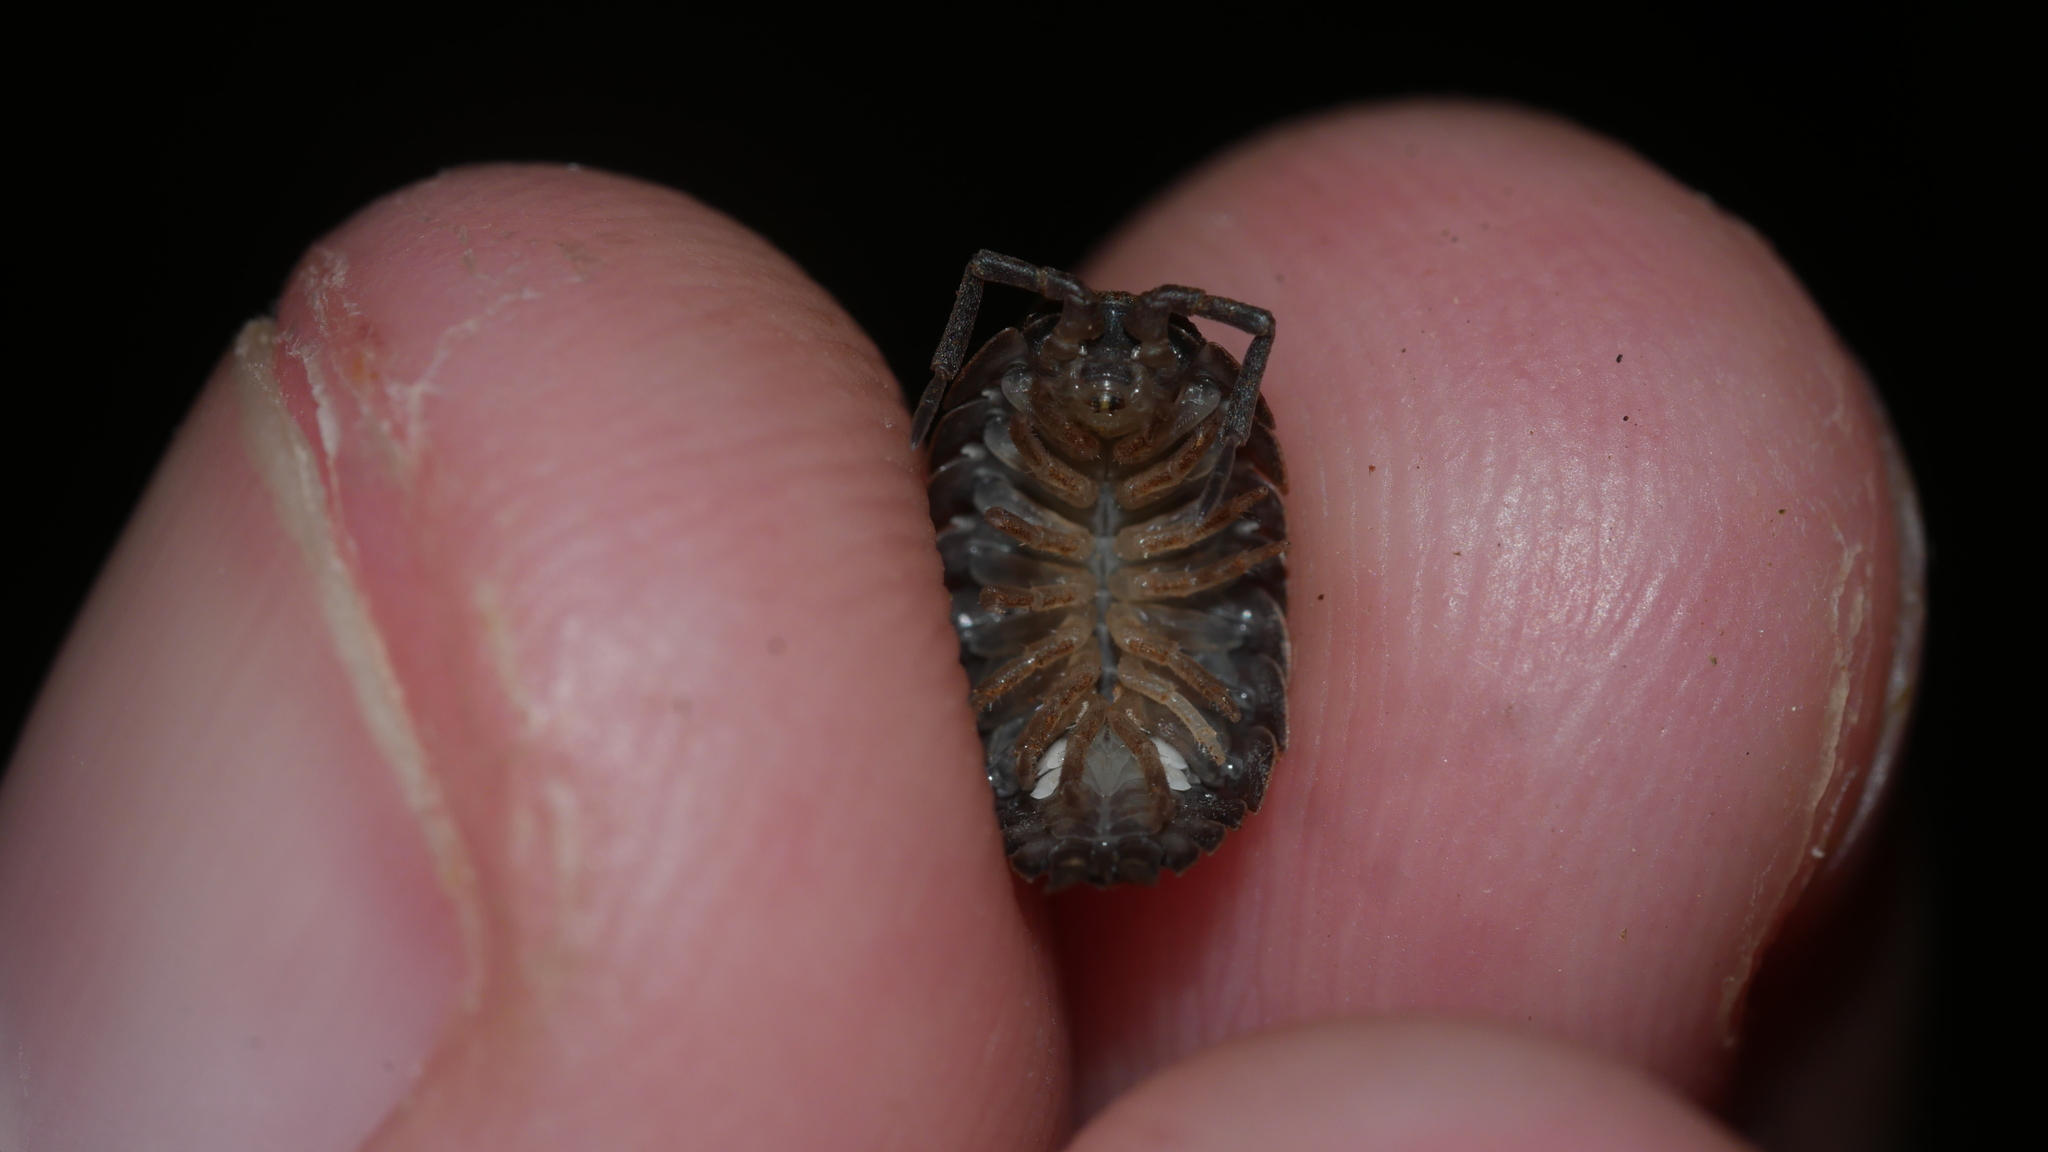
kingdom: Animalia
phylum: Arthropoda
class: Malacostraca
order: Isopoda
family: Porcellionidae
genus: Porcellio
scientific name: Porcellio scaber
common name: Common rough woodlouse
